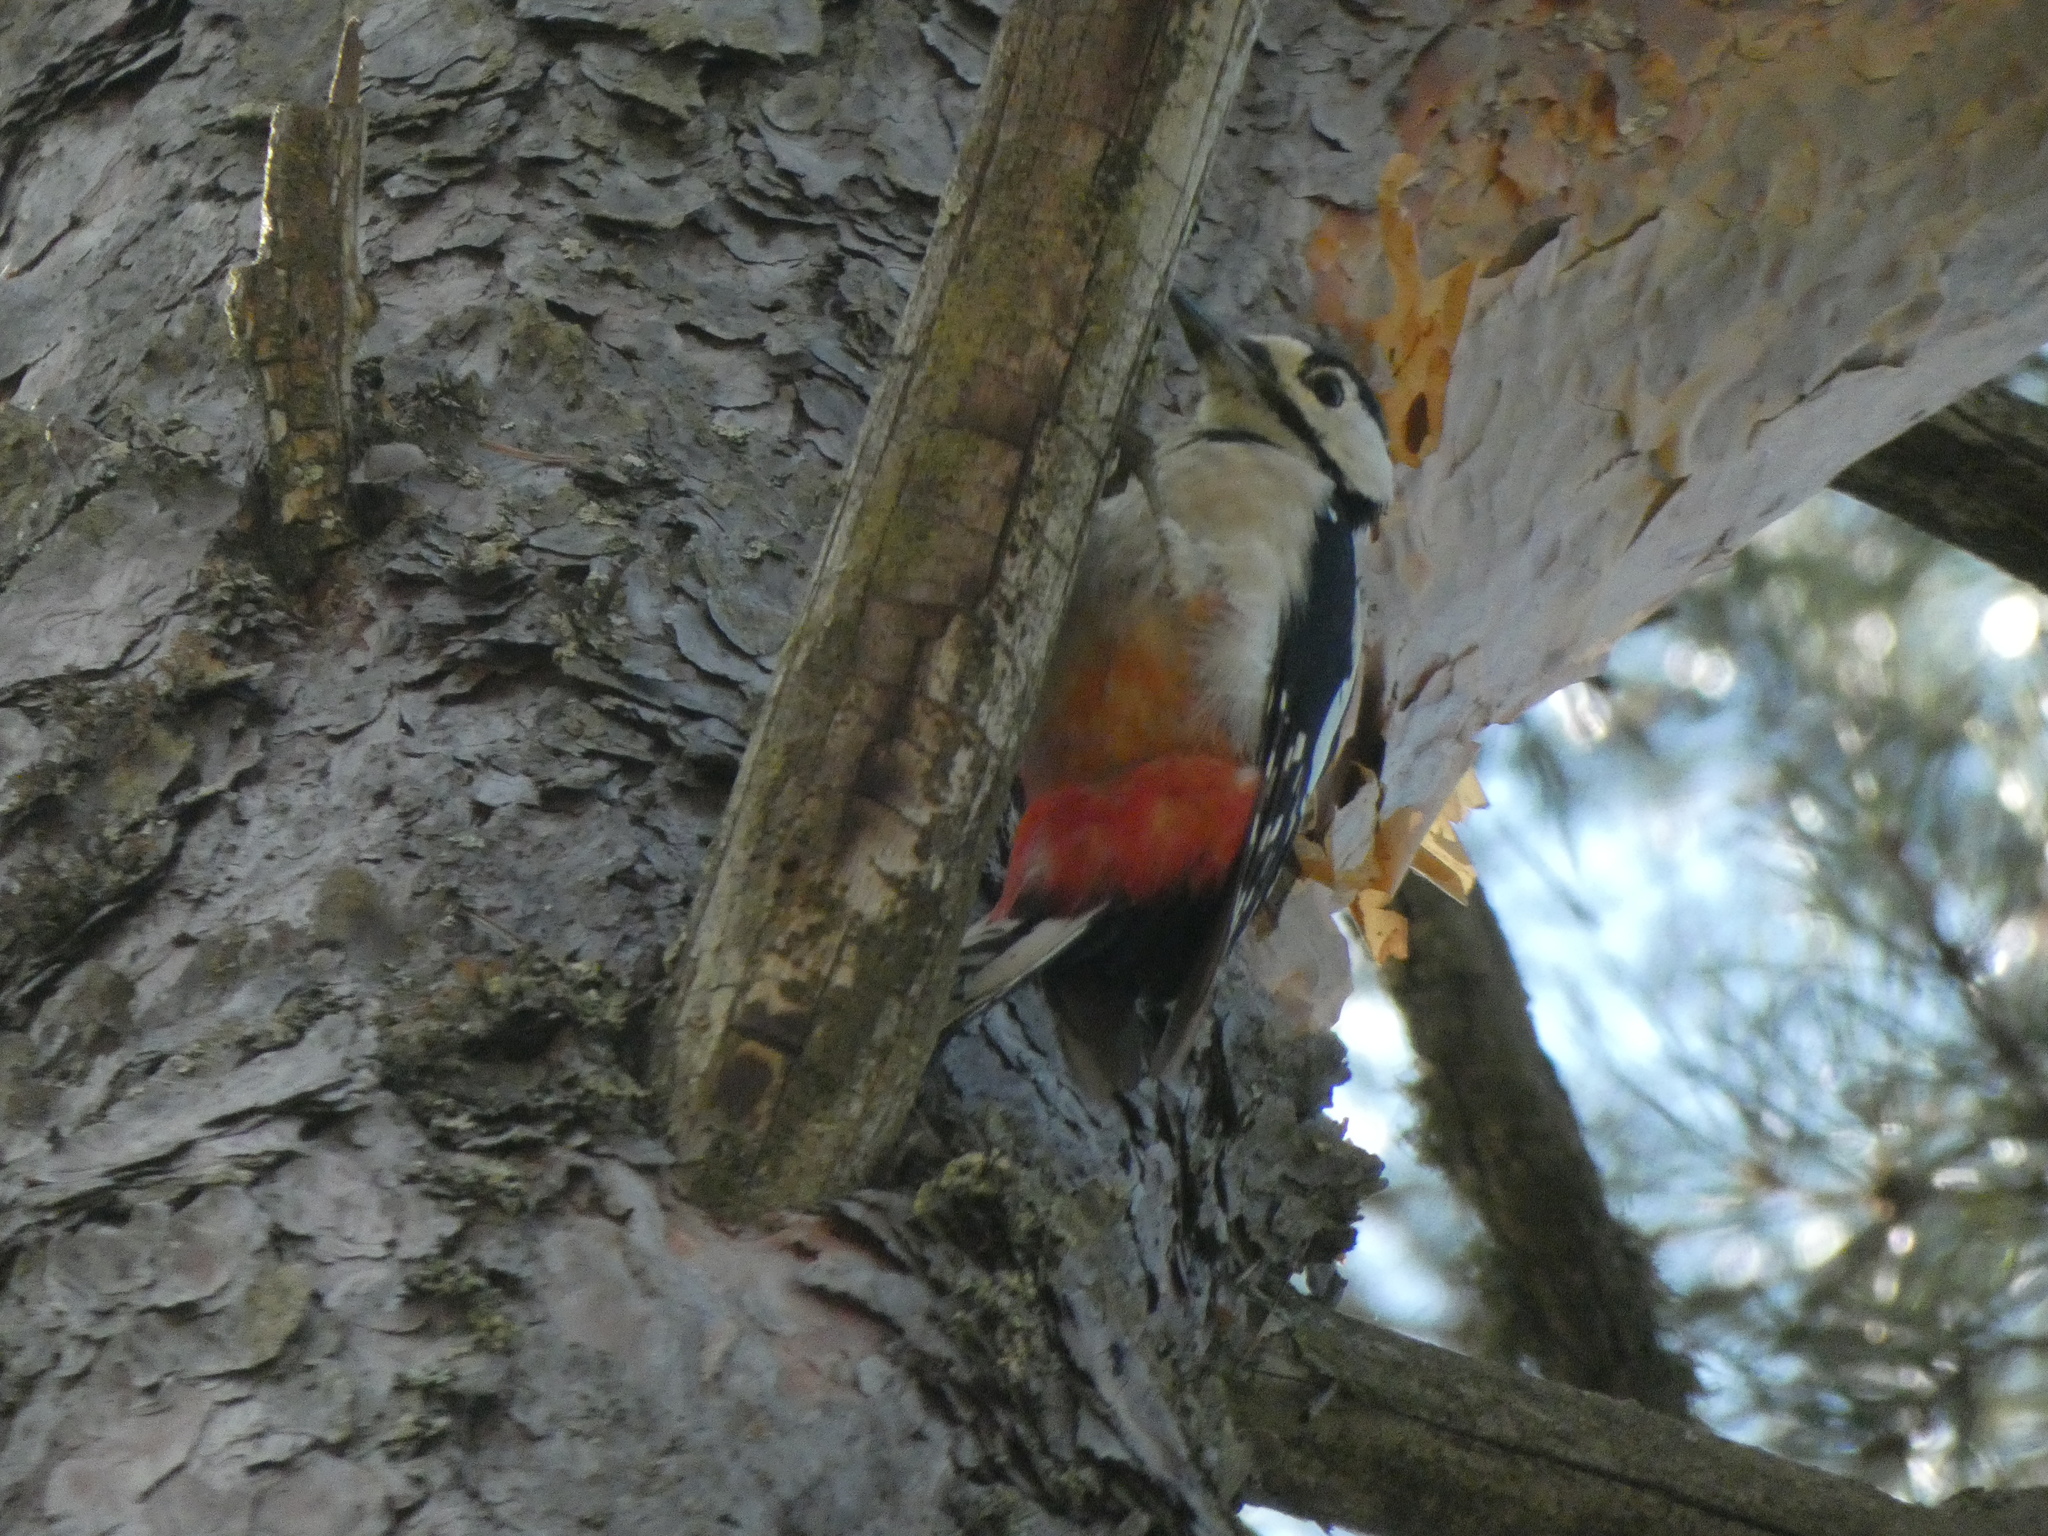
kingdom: Animalia
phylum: Chordata
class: Aves
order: Piciformes
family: Picidae
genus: Dendrocopos
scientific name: Dendrocopos major
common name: Great spotted woodpecker
